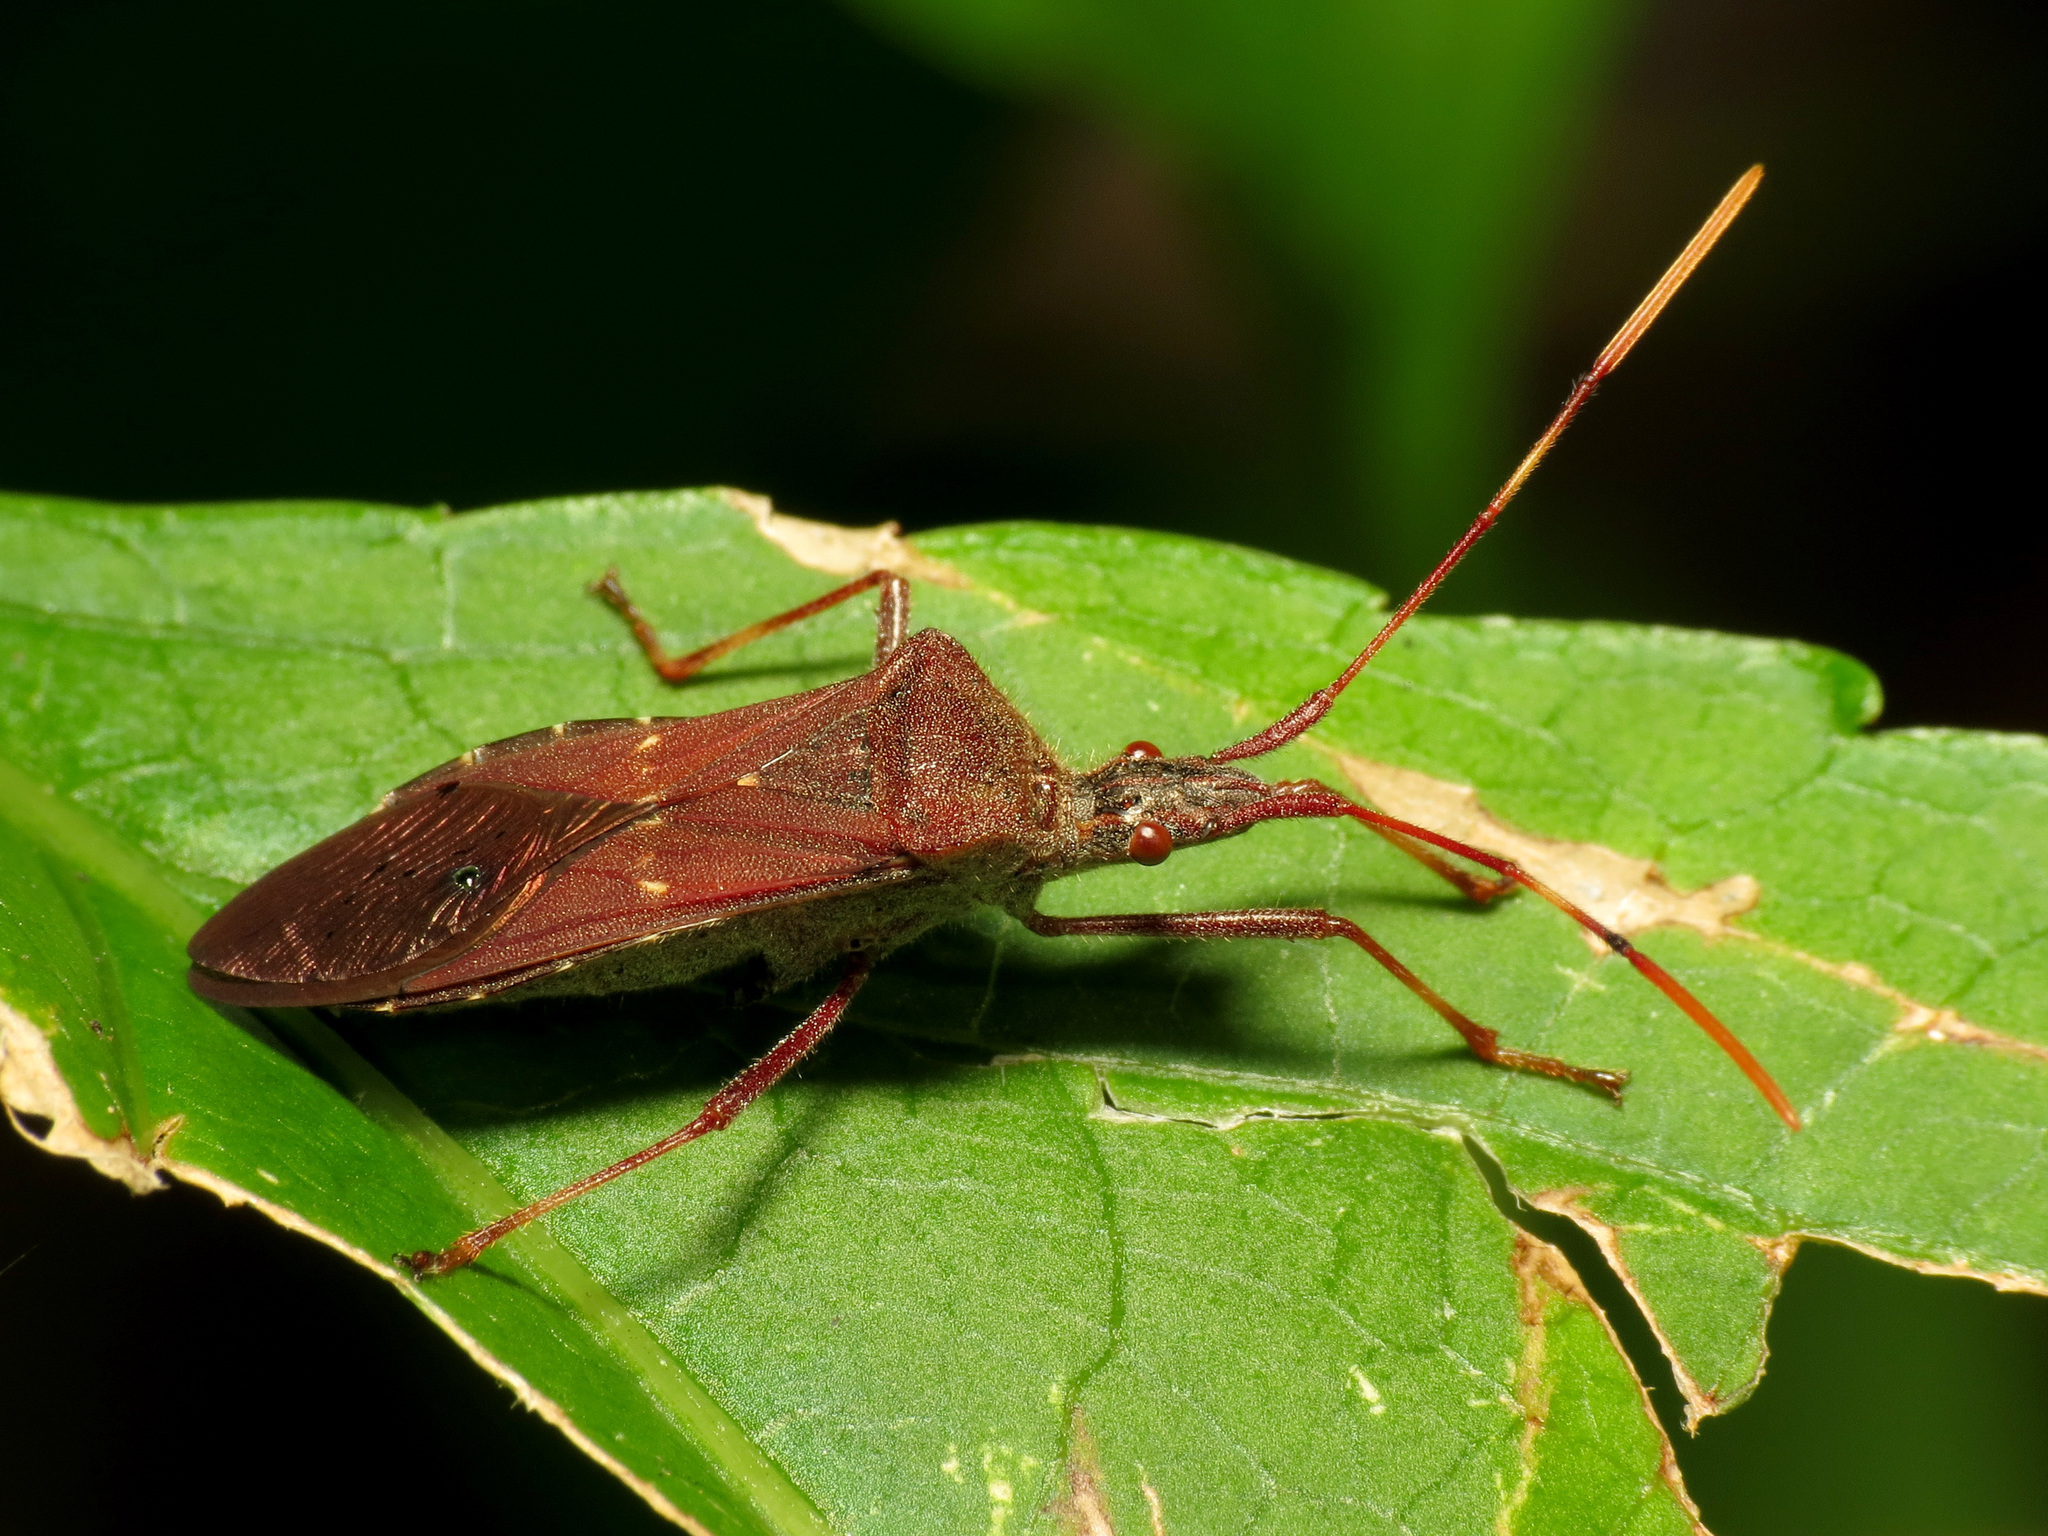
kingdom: Animalia
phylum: Arthropoda
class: Insecta
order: Hemiptera
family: Coreidae
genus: Leptoglossus
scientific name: Leptoglossus oppositus
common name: Northern leaf-footed bug
